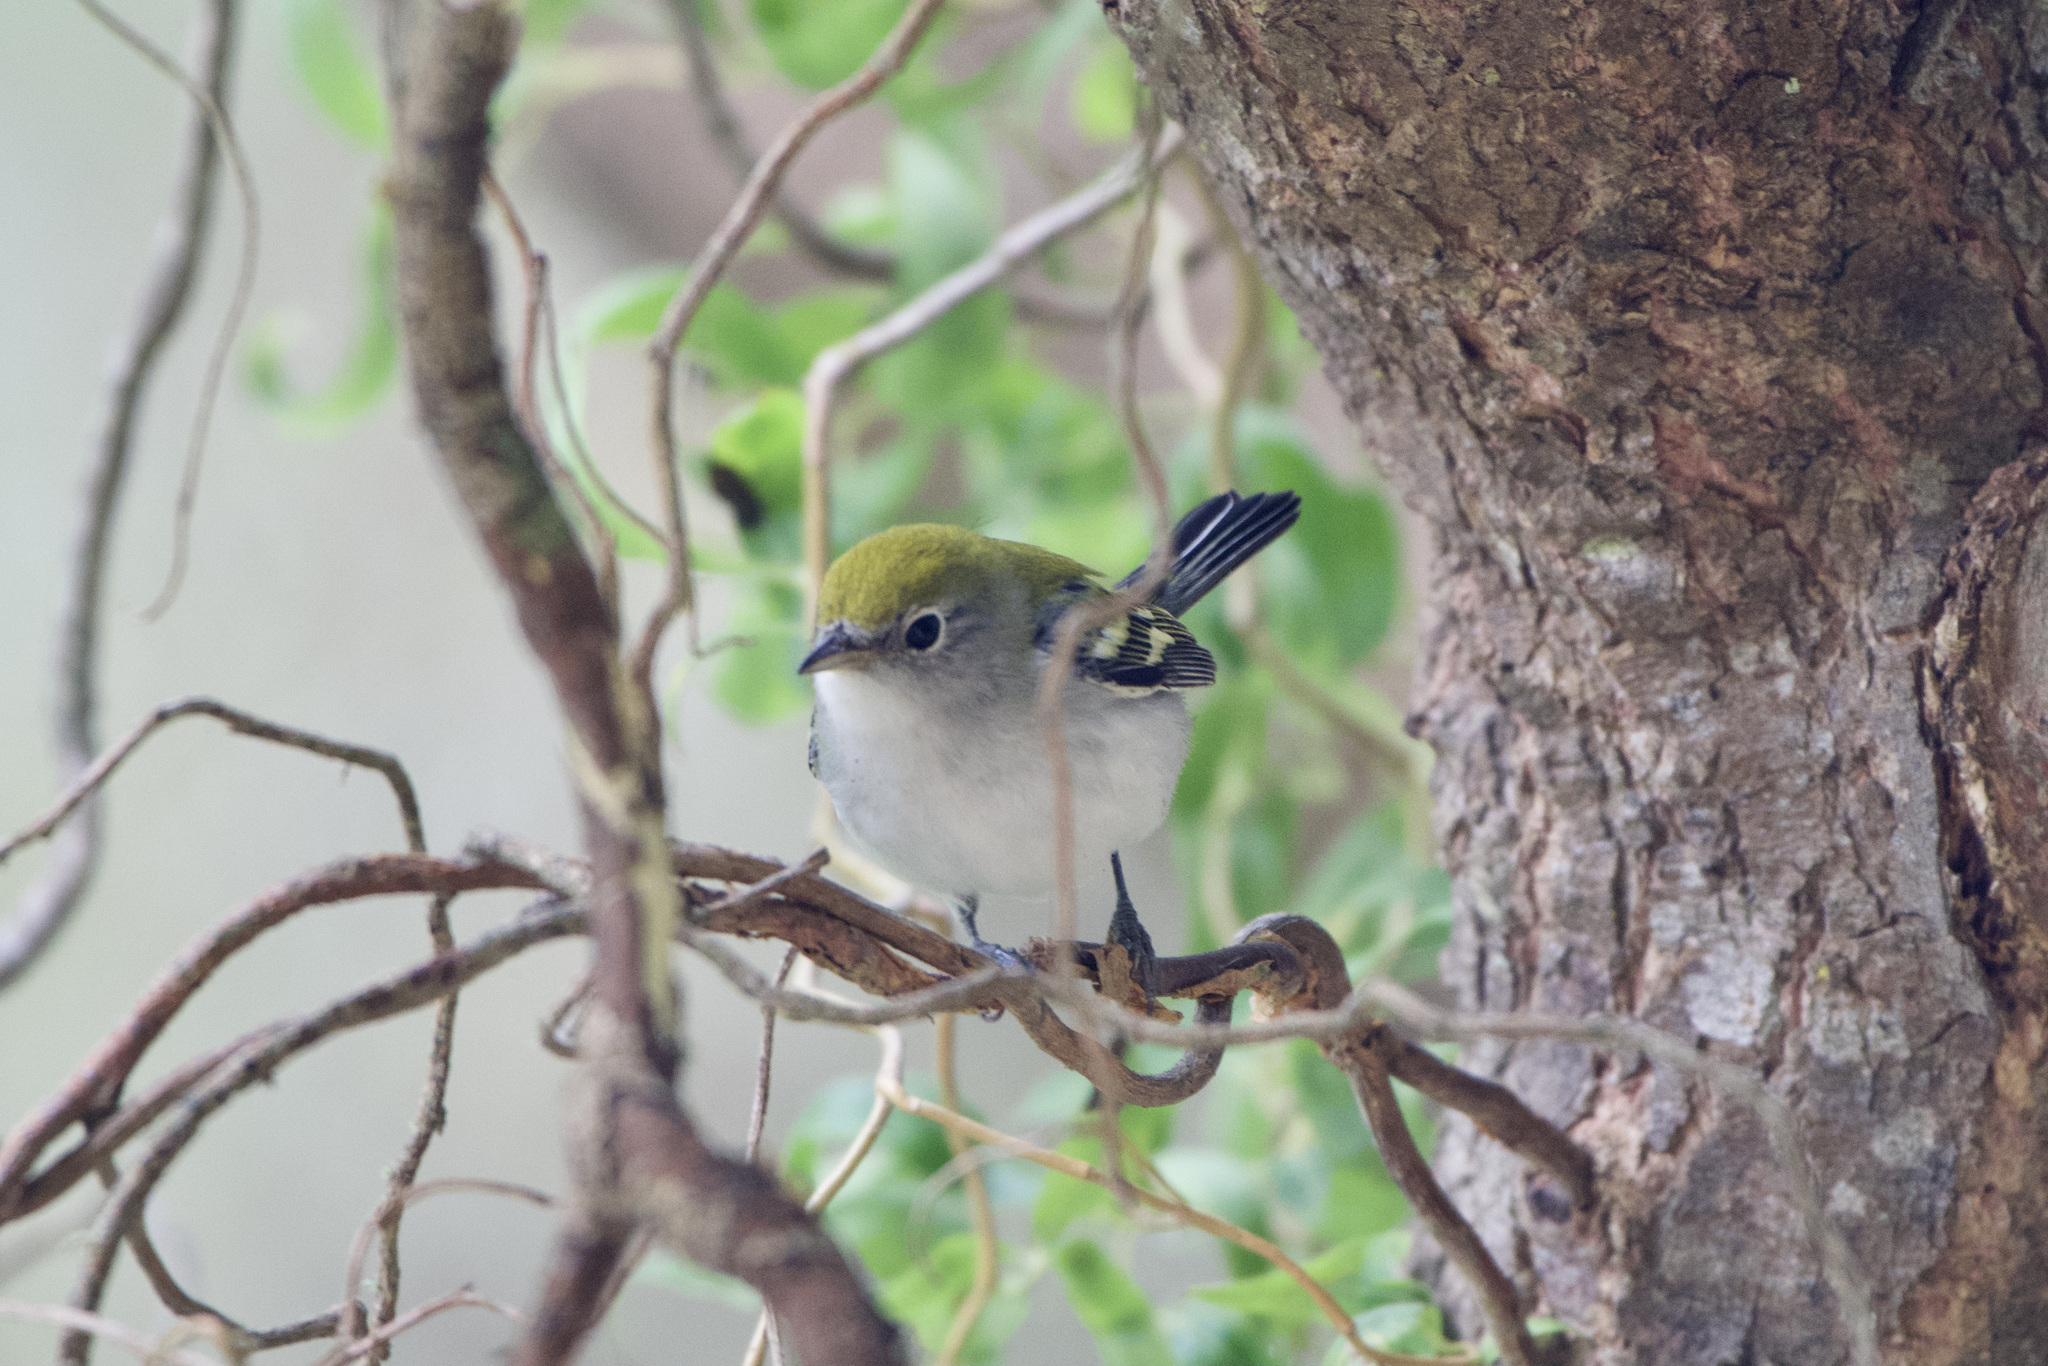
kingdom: Animalia
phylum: Chordata
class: Aves
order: Passeriformes
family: Parulidae
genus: Setophaga
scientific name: Setophaga pensylvanica
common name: Chestnut-sided warbler
